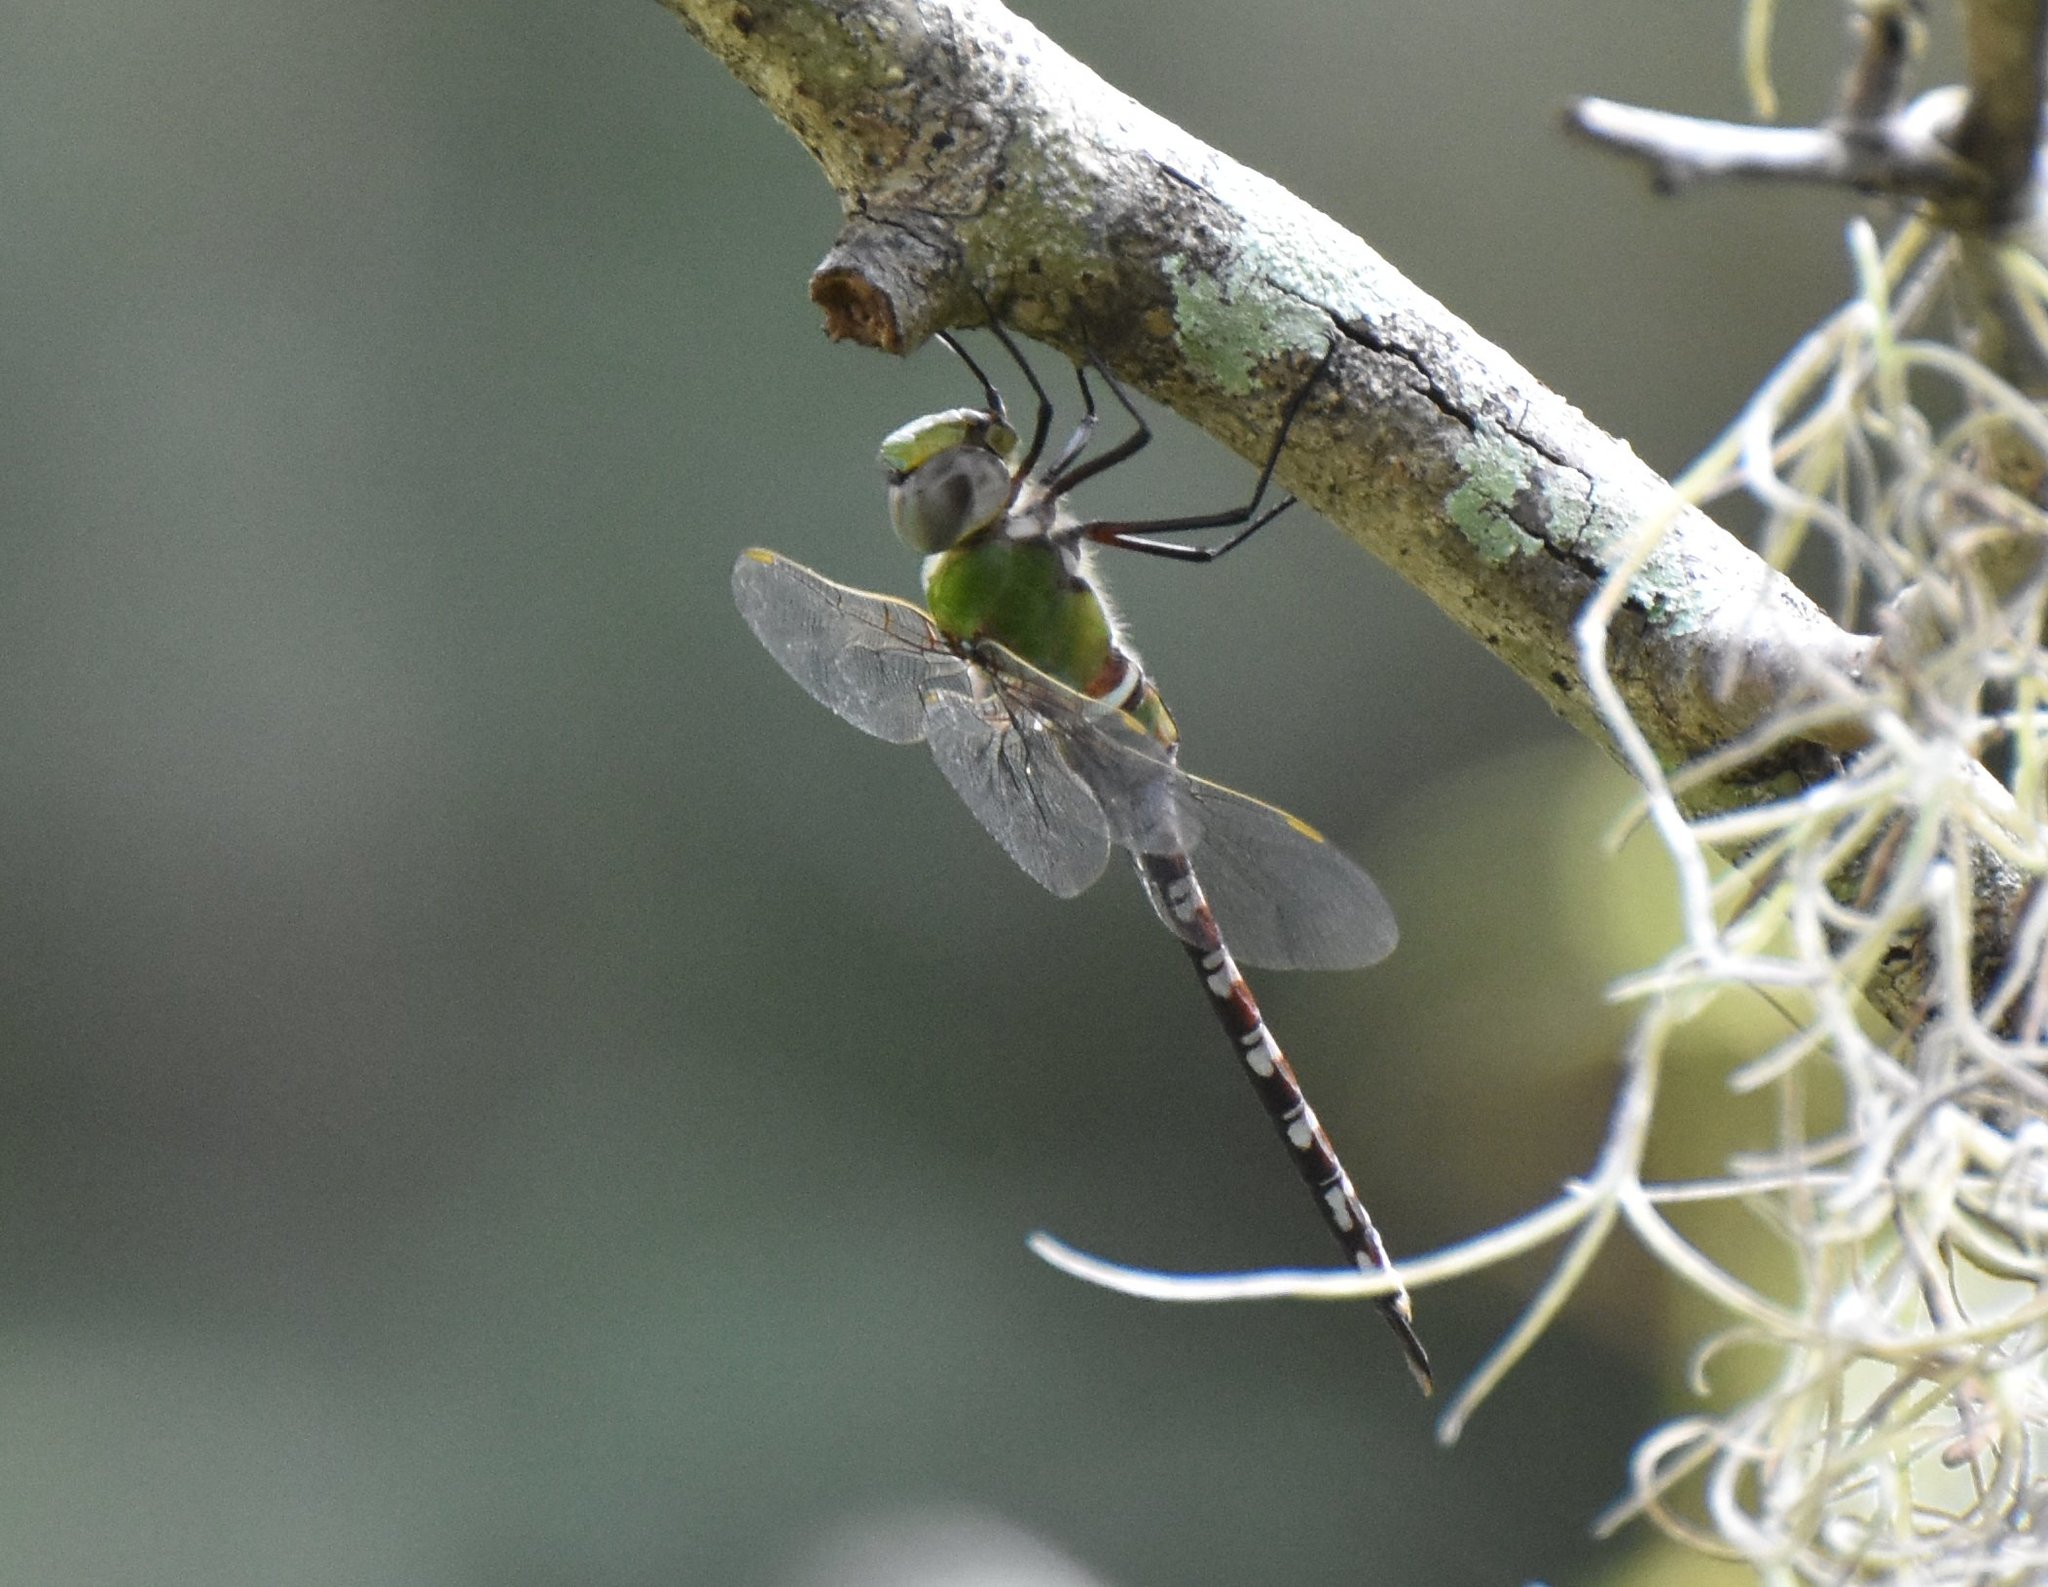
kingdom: Animalia
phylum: Arthropoda
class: Insecta
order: Odonata
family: Aeshnidae
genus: Anax
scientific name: Anax amazili
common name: Amazon darner
